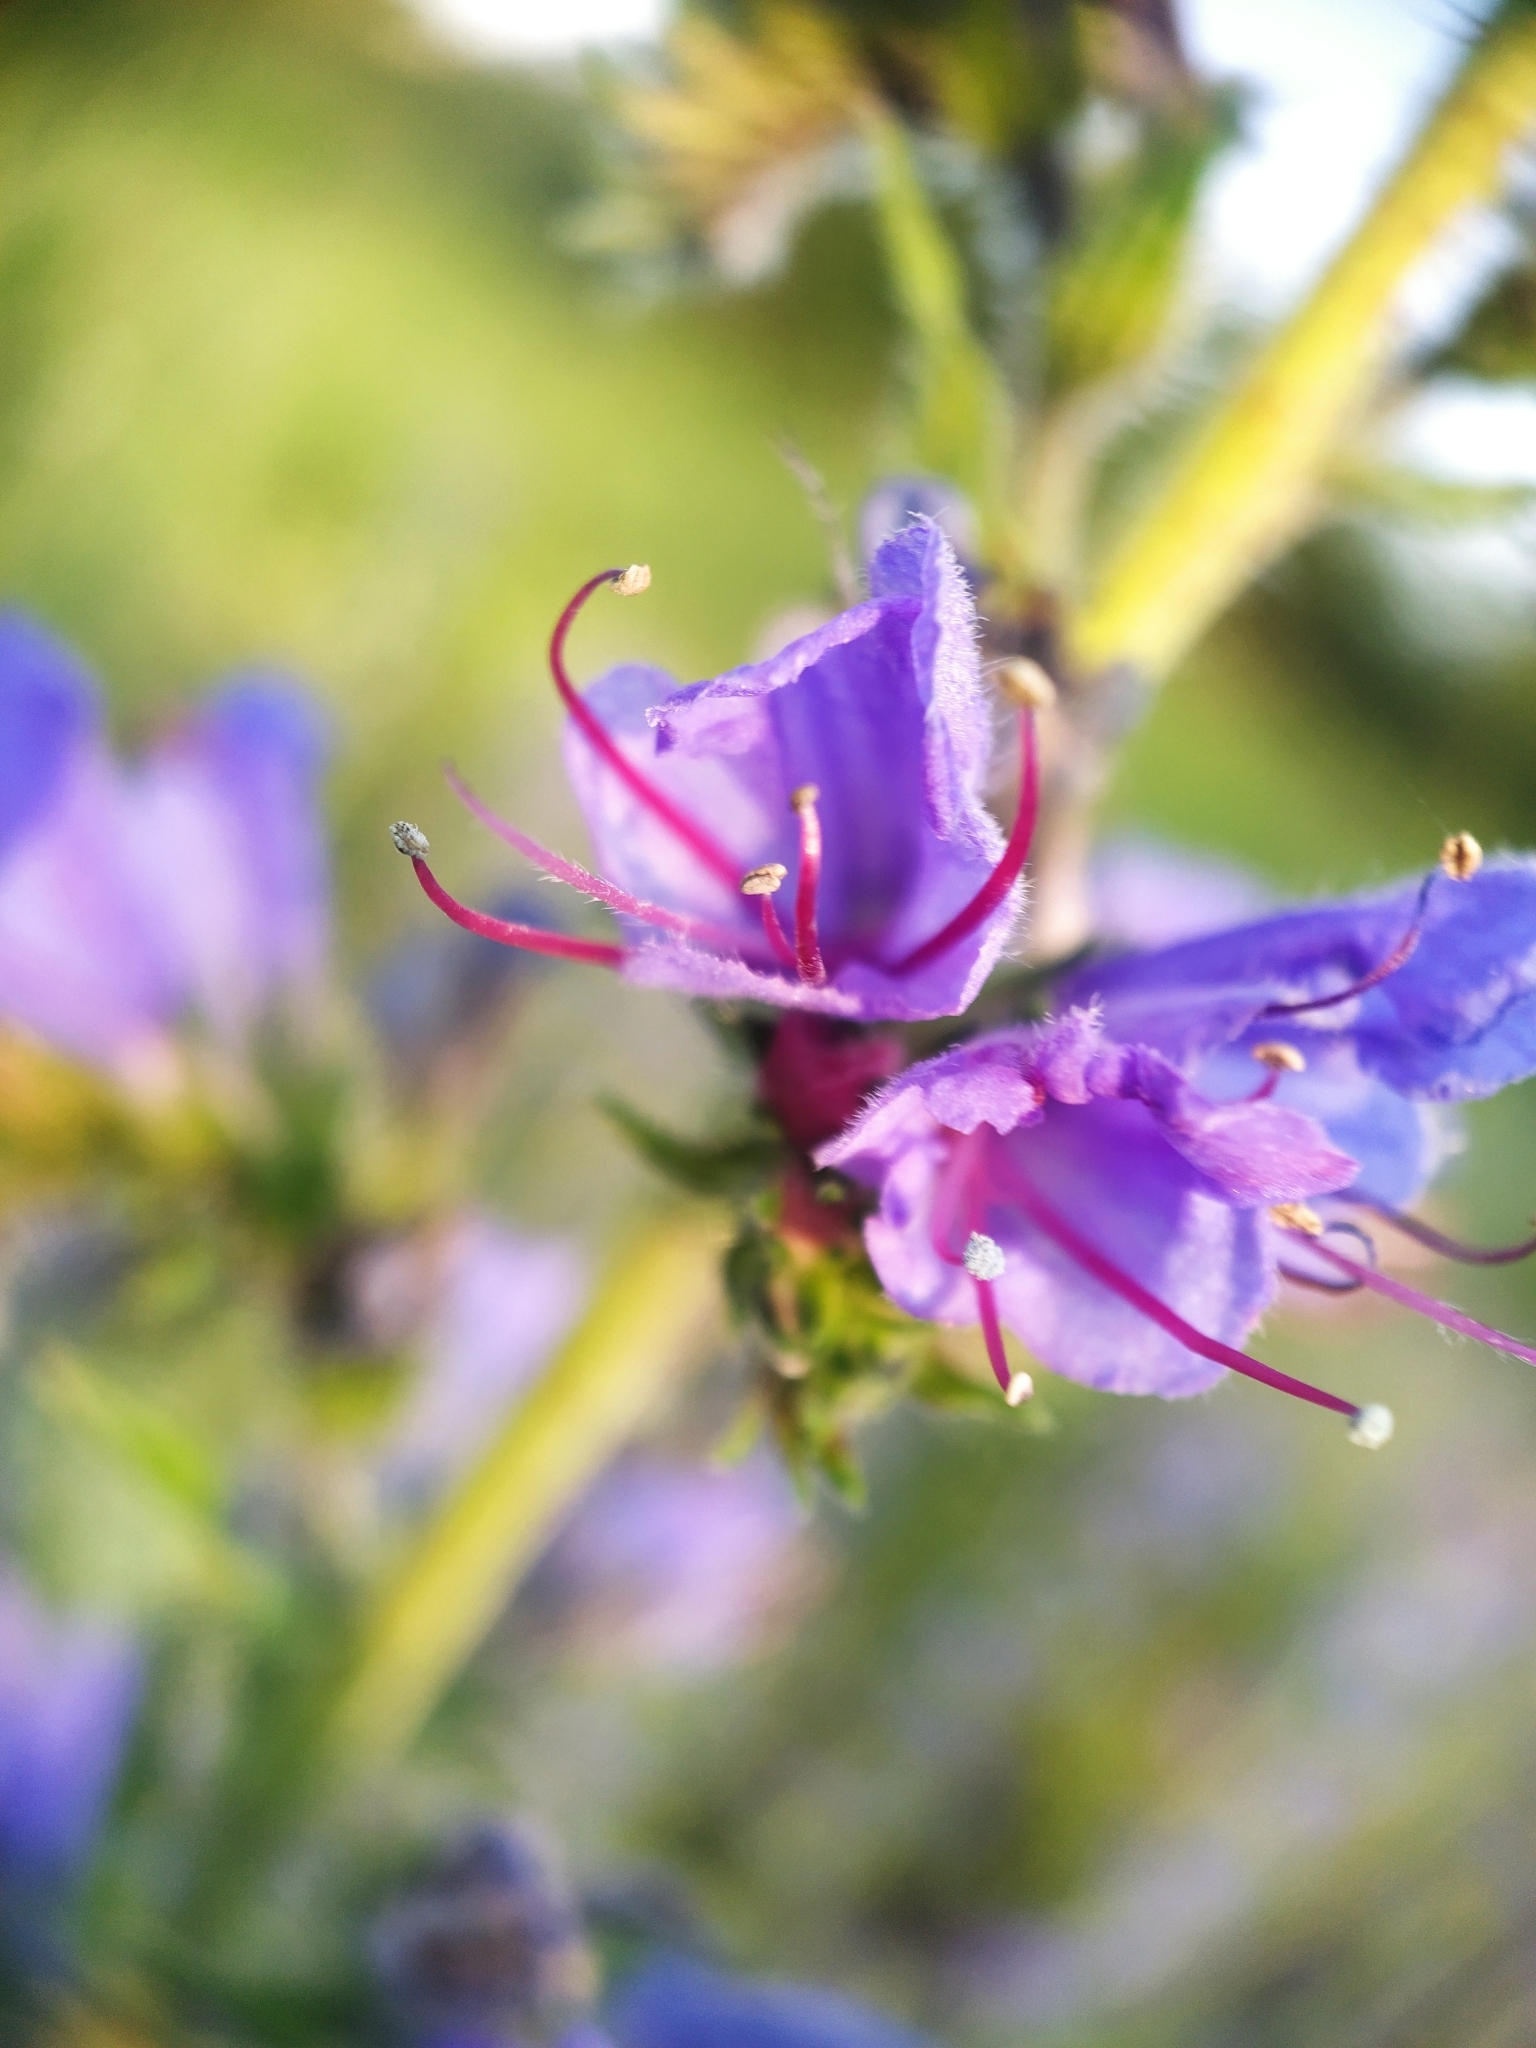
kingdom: Plantae
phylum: Tracheophyta
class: Magnoliopsida
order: Boraginales
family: Boraginaceae
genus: Echium
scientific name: Echium vulgare
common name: Common viper's bugloss
